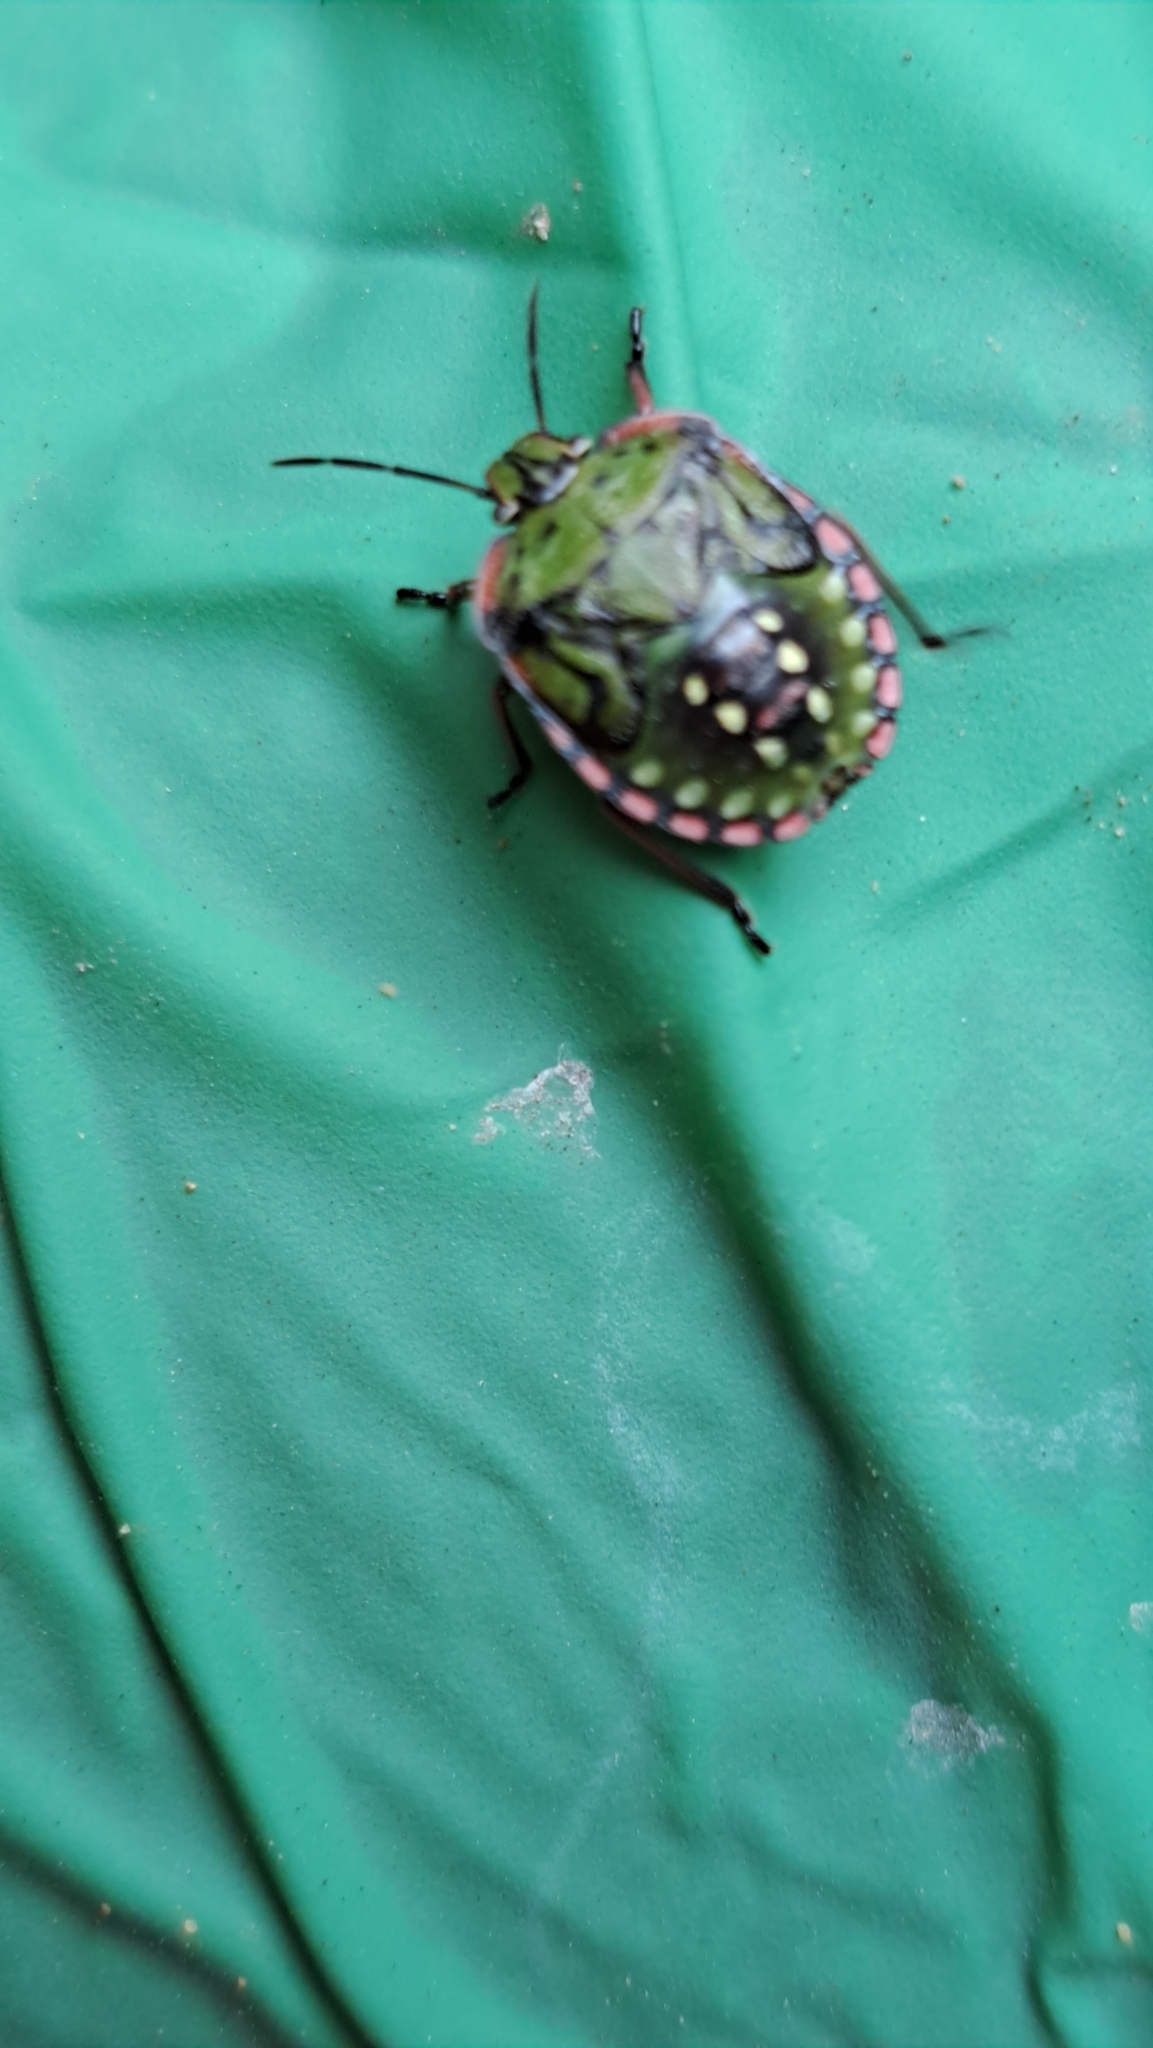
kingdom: Animalia
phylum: Arthropoda
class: Insecta
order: Hemiptera
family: Pentatomidae
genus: Nezara
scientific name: Nezara viridula
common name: Southern green stink bug
